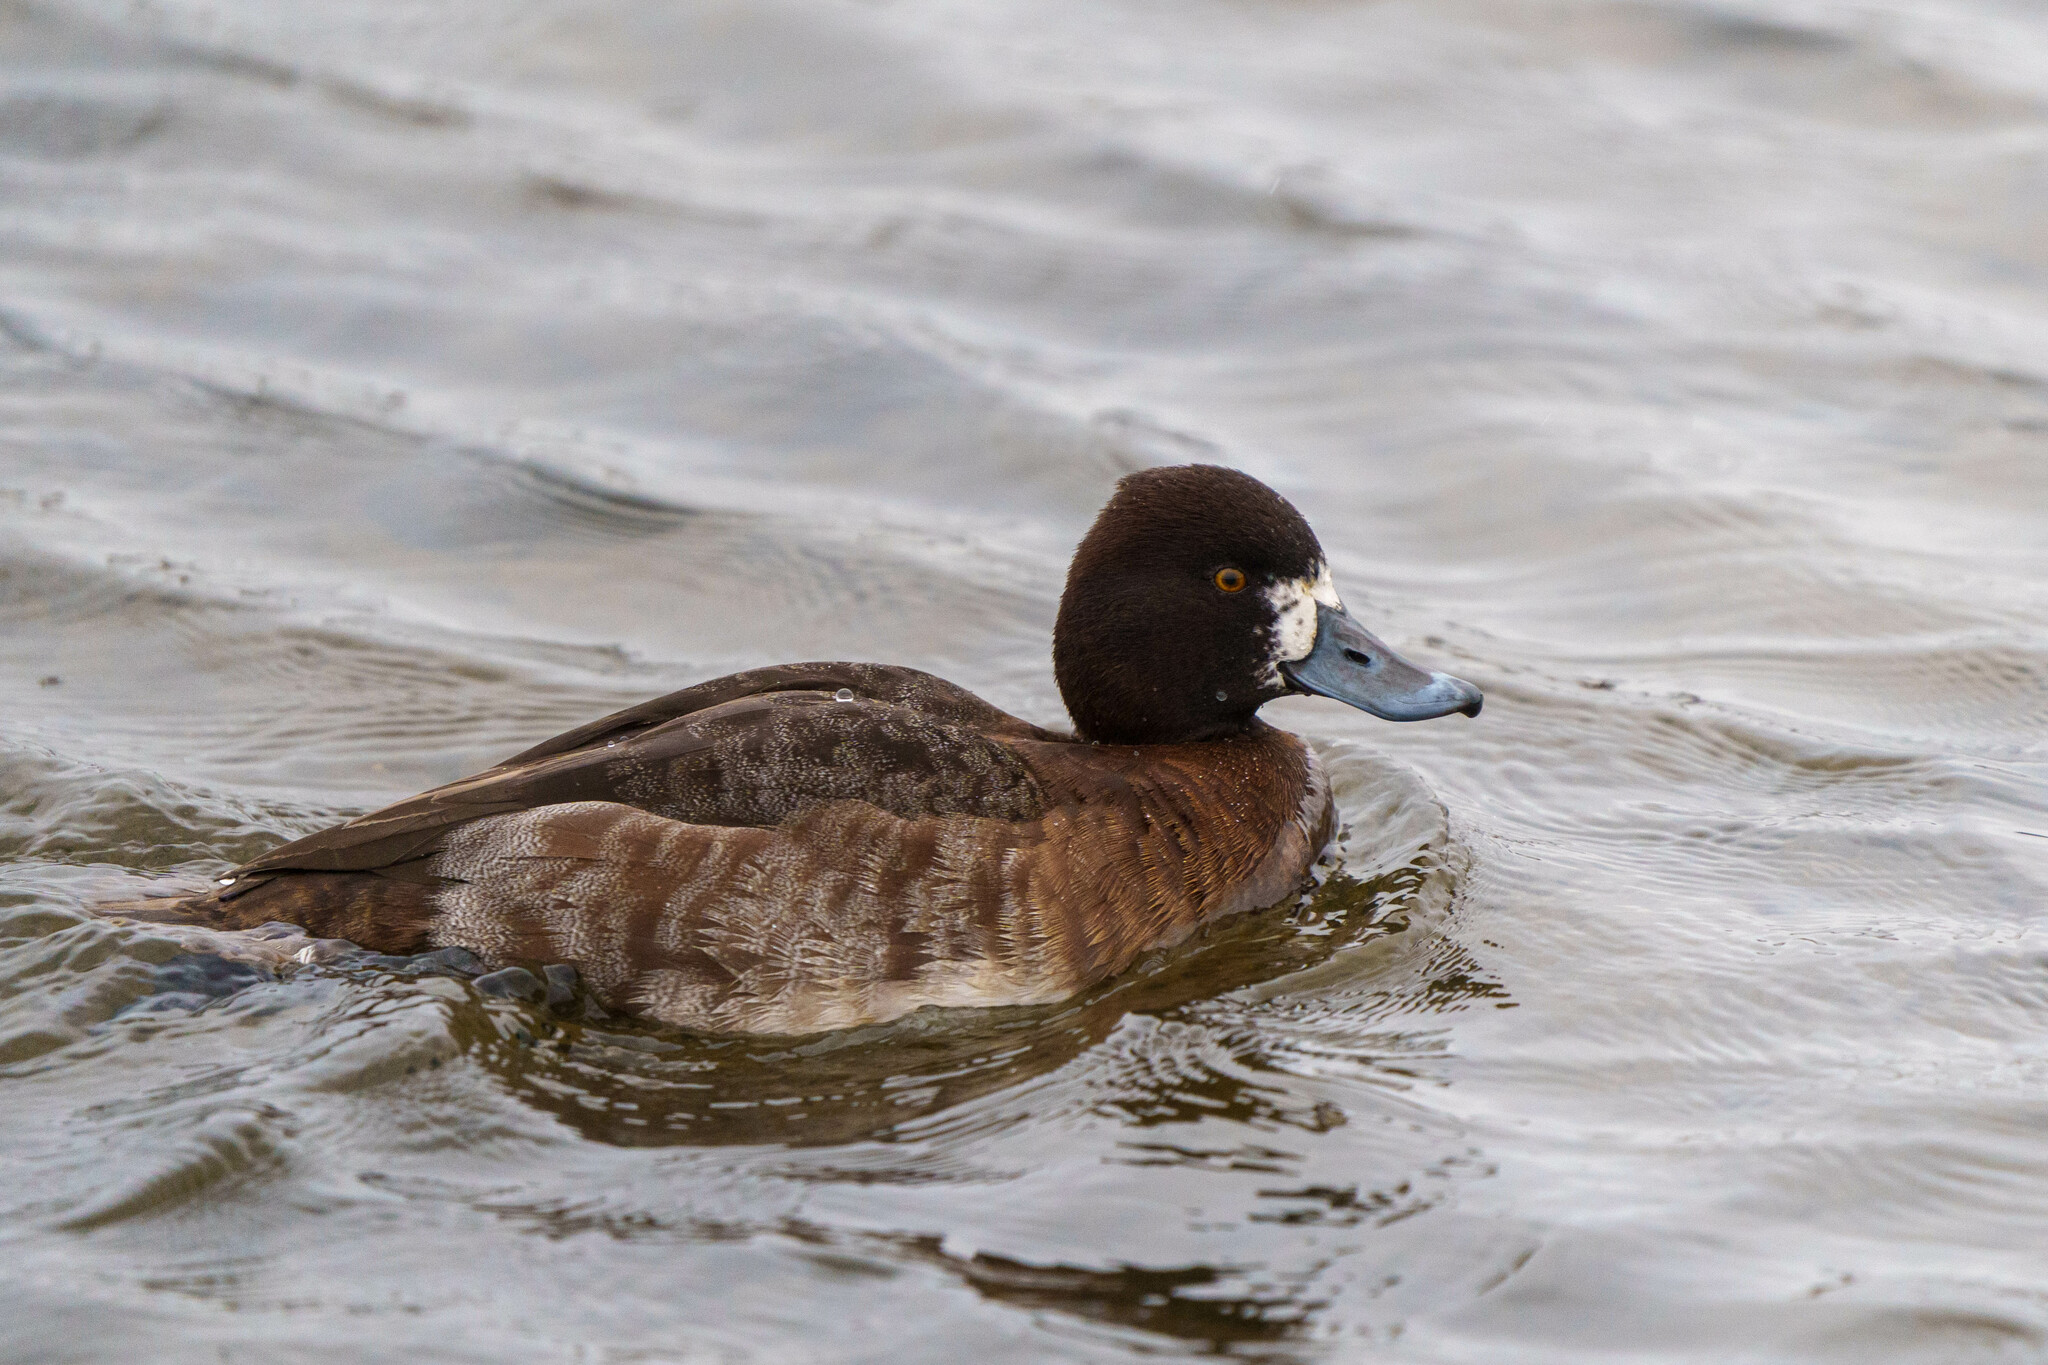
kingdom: Animalia
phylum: Chordata
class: Aves
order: Anseriformes
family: Anatidae
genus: Aythya
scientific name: Aythya affinis
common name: Lesser scaup
